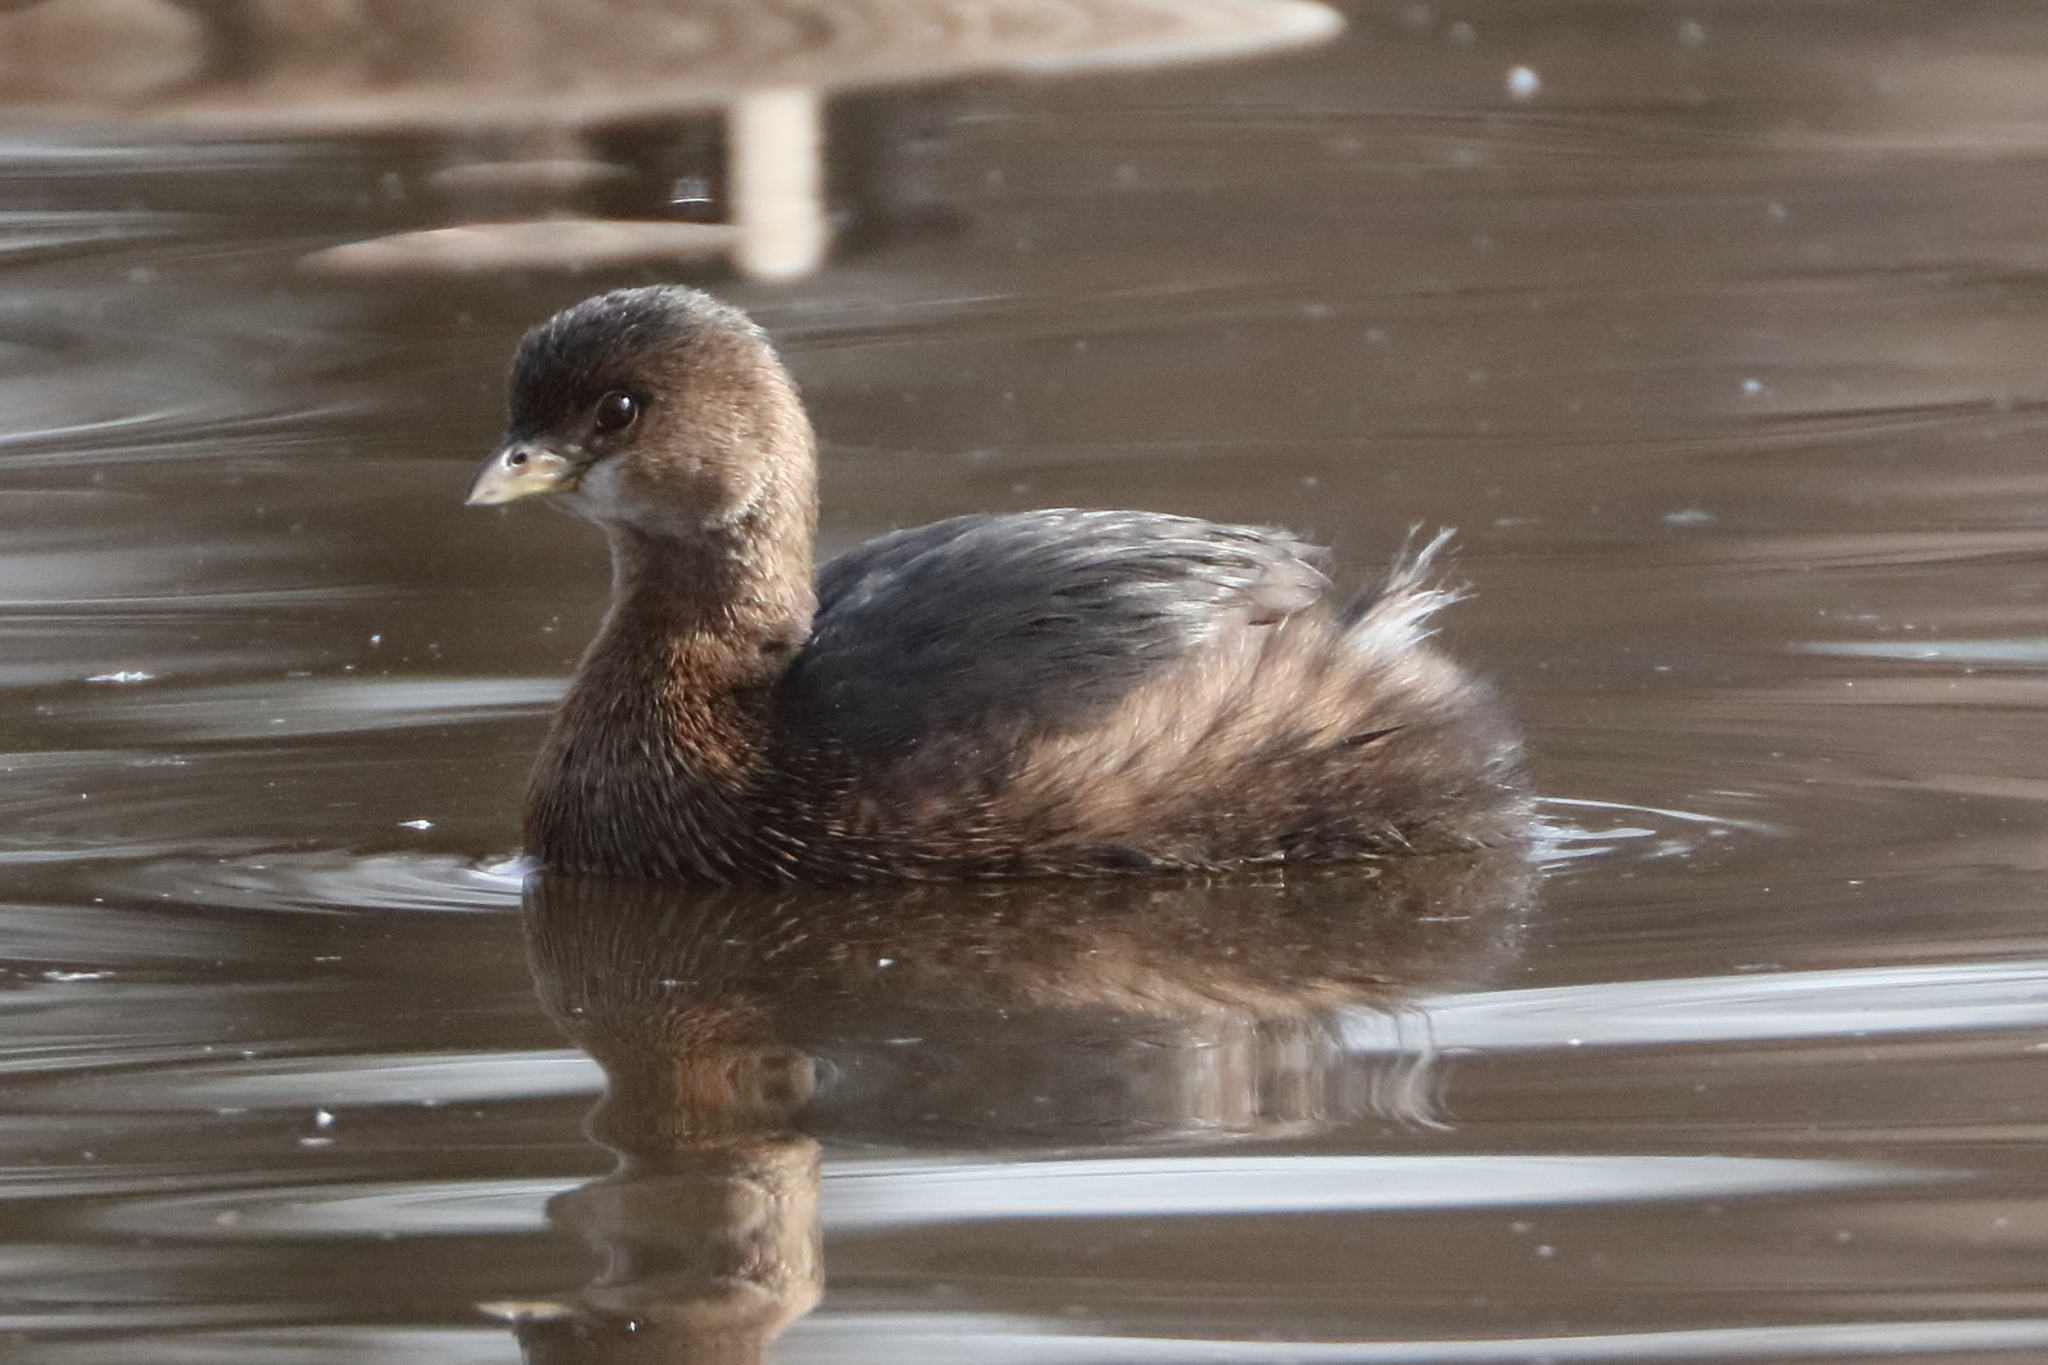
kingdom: Animalia
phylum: Chordata
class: Aves
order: Podicipediformes
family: Podicipedidae
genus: Podilymbus
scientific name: Podilymbus podiceps
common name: Pied-billed grebe
